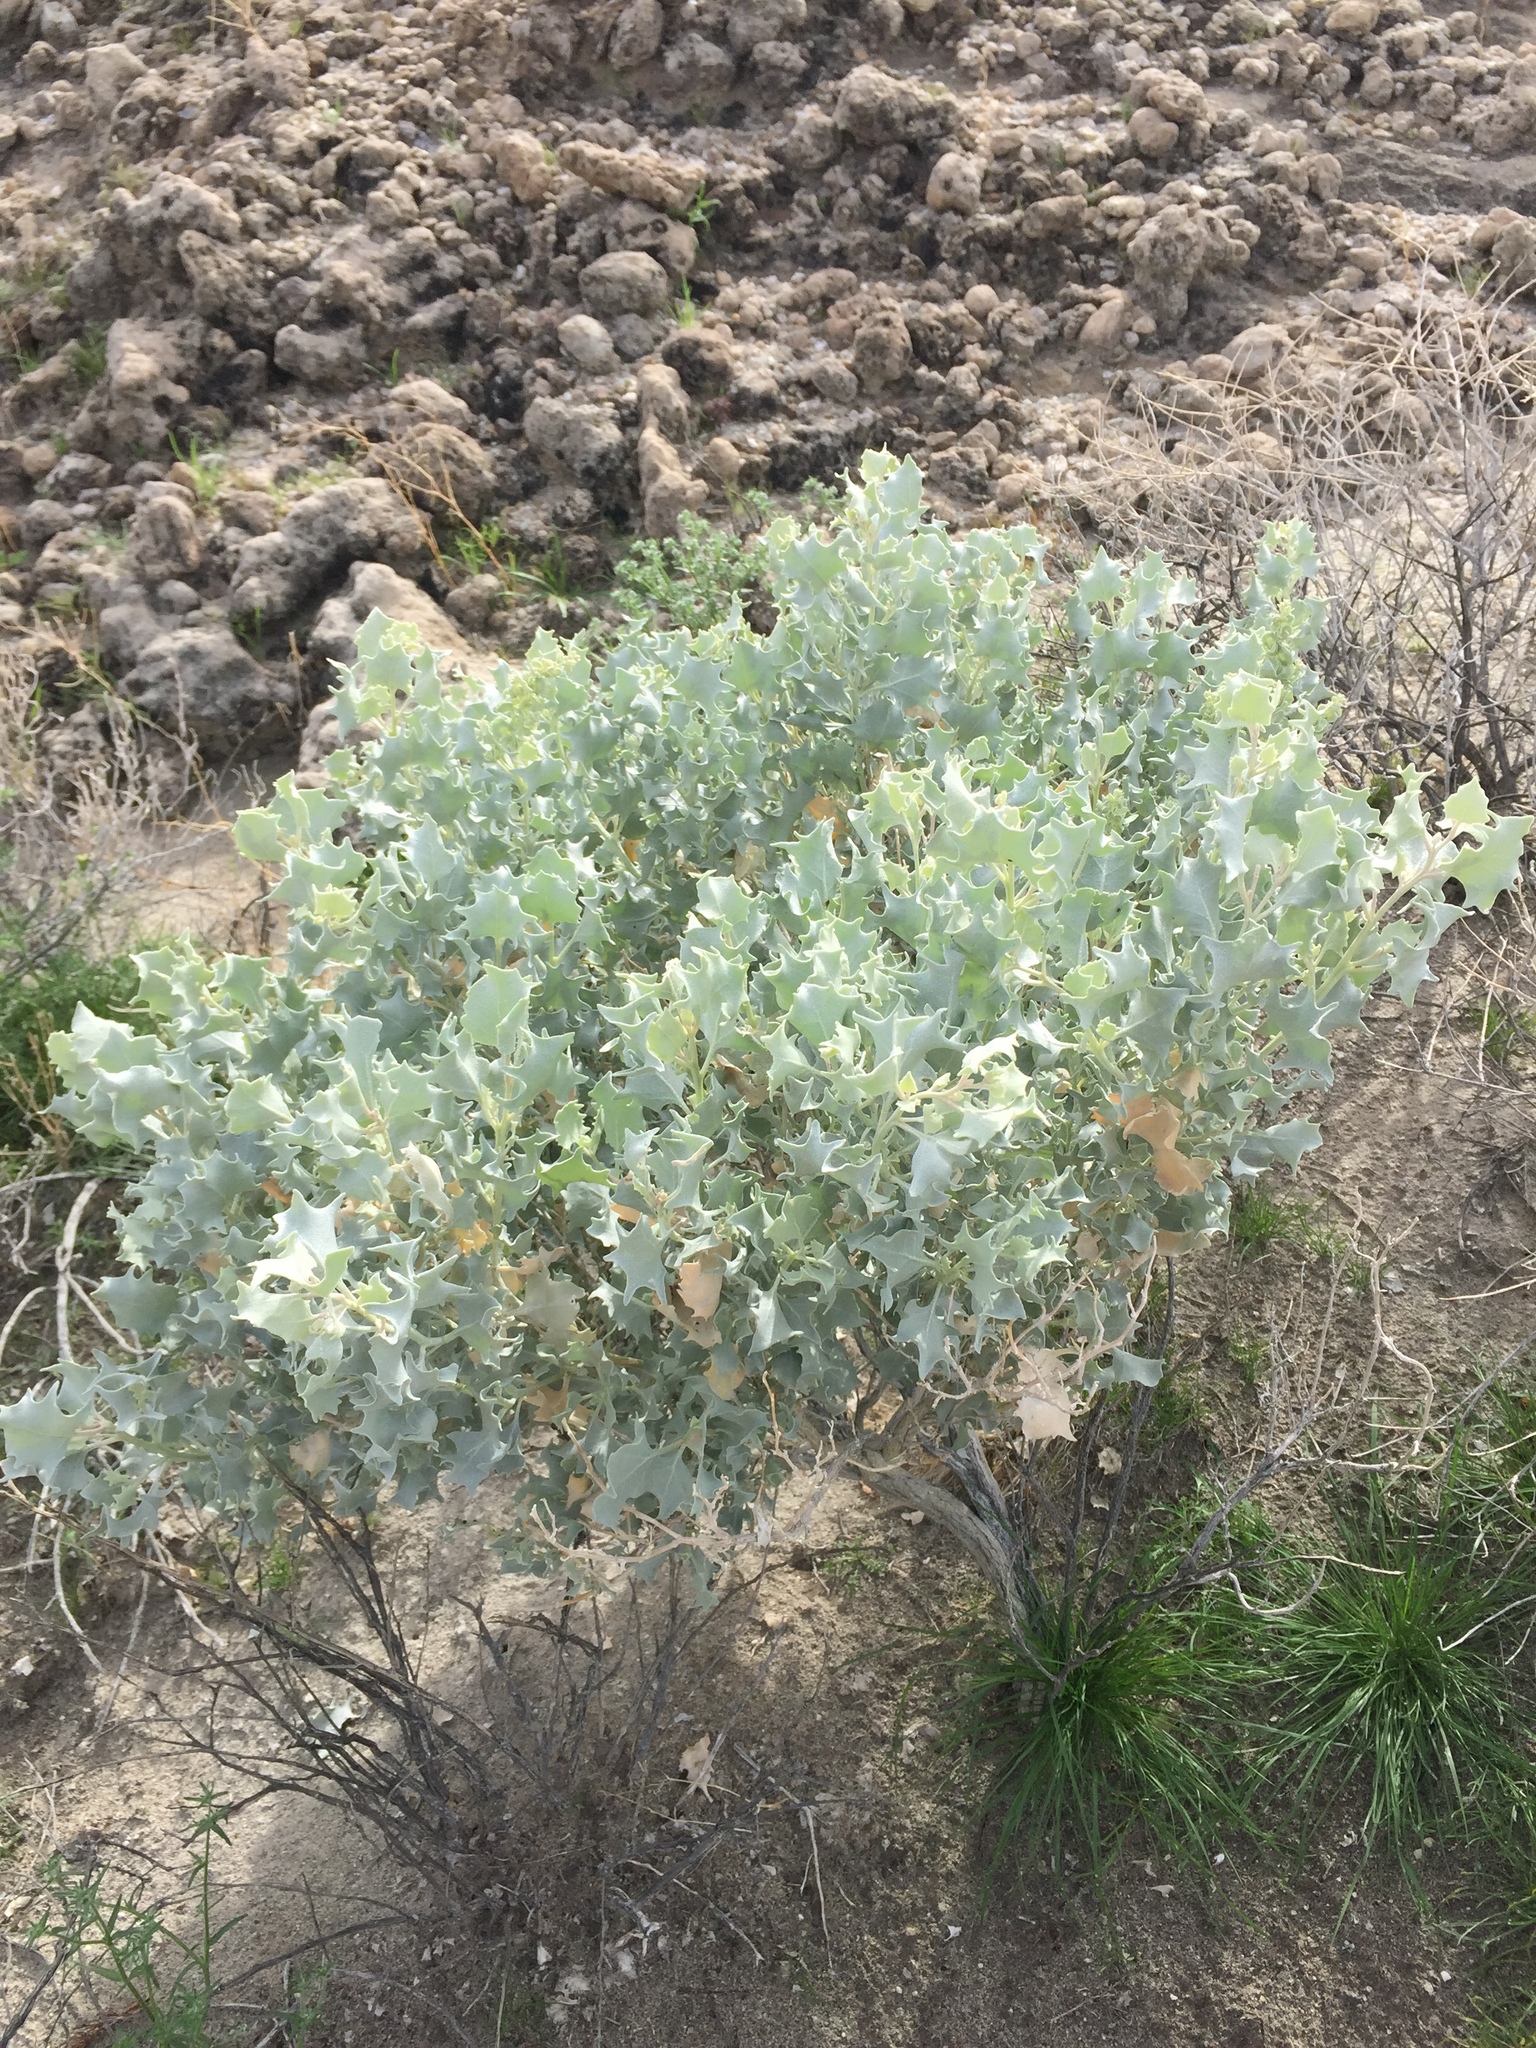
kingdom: Plantae
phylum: Tracheophyta
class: Magnoliopsida
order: Caryophyllales
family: Amaranthaceae
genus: Atriplex
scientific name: Atriplex hymenelytra
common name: Desert-holly
